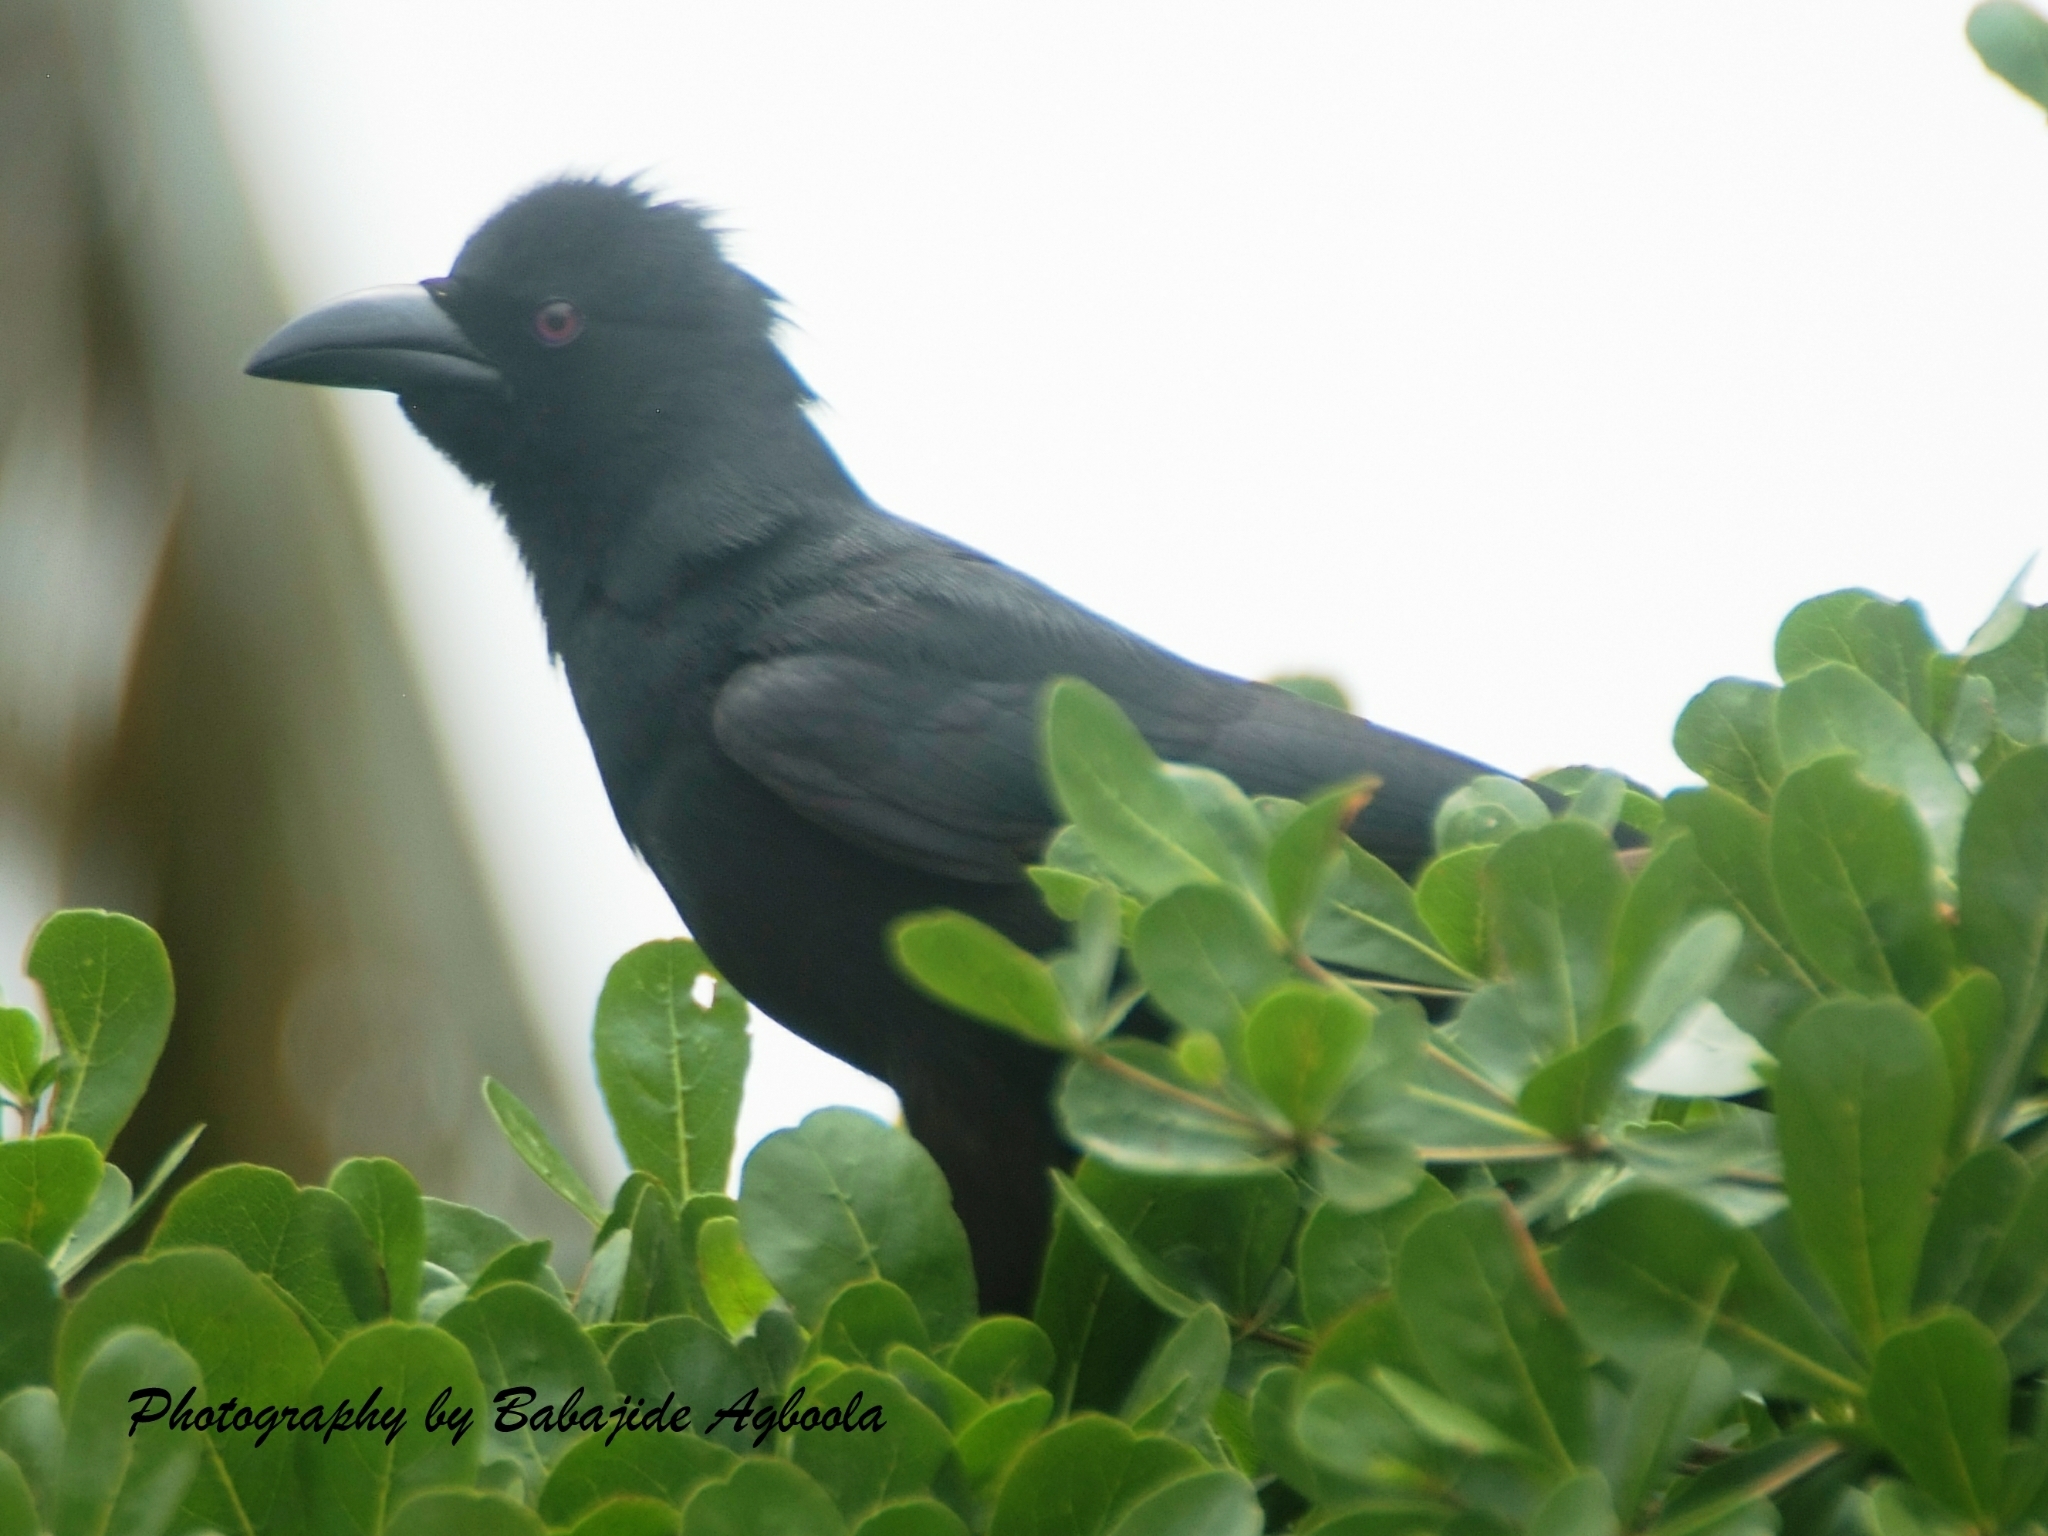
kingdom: Animalia
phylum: Chordata
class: Aves
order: Passeriformes
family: Corvidae
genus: Ptilostomus
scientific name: Ptilostomus afer
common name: Piapiac
